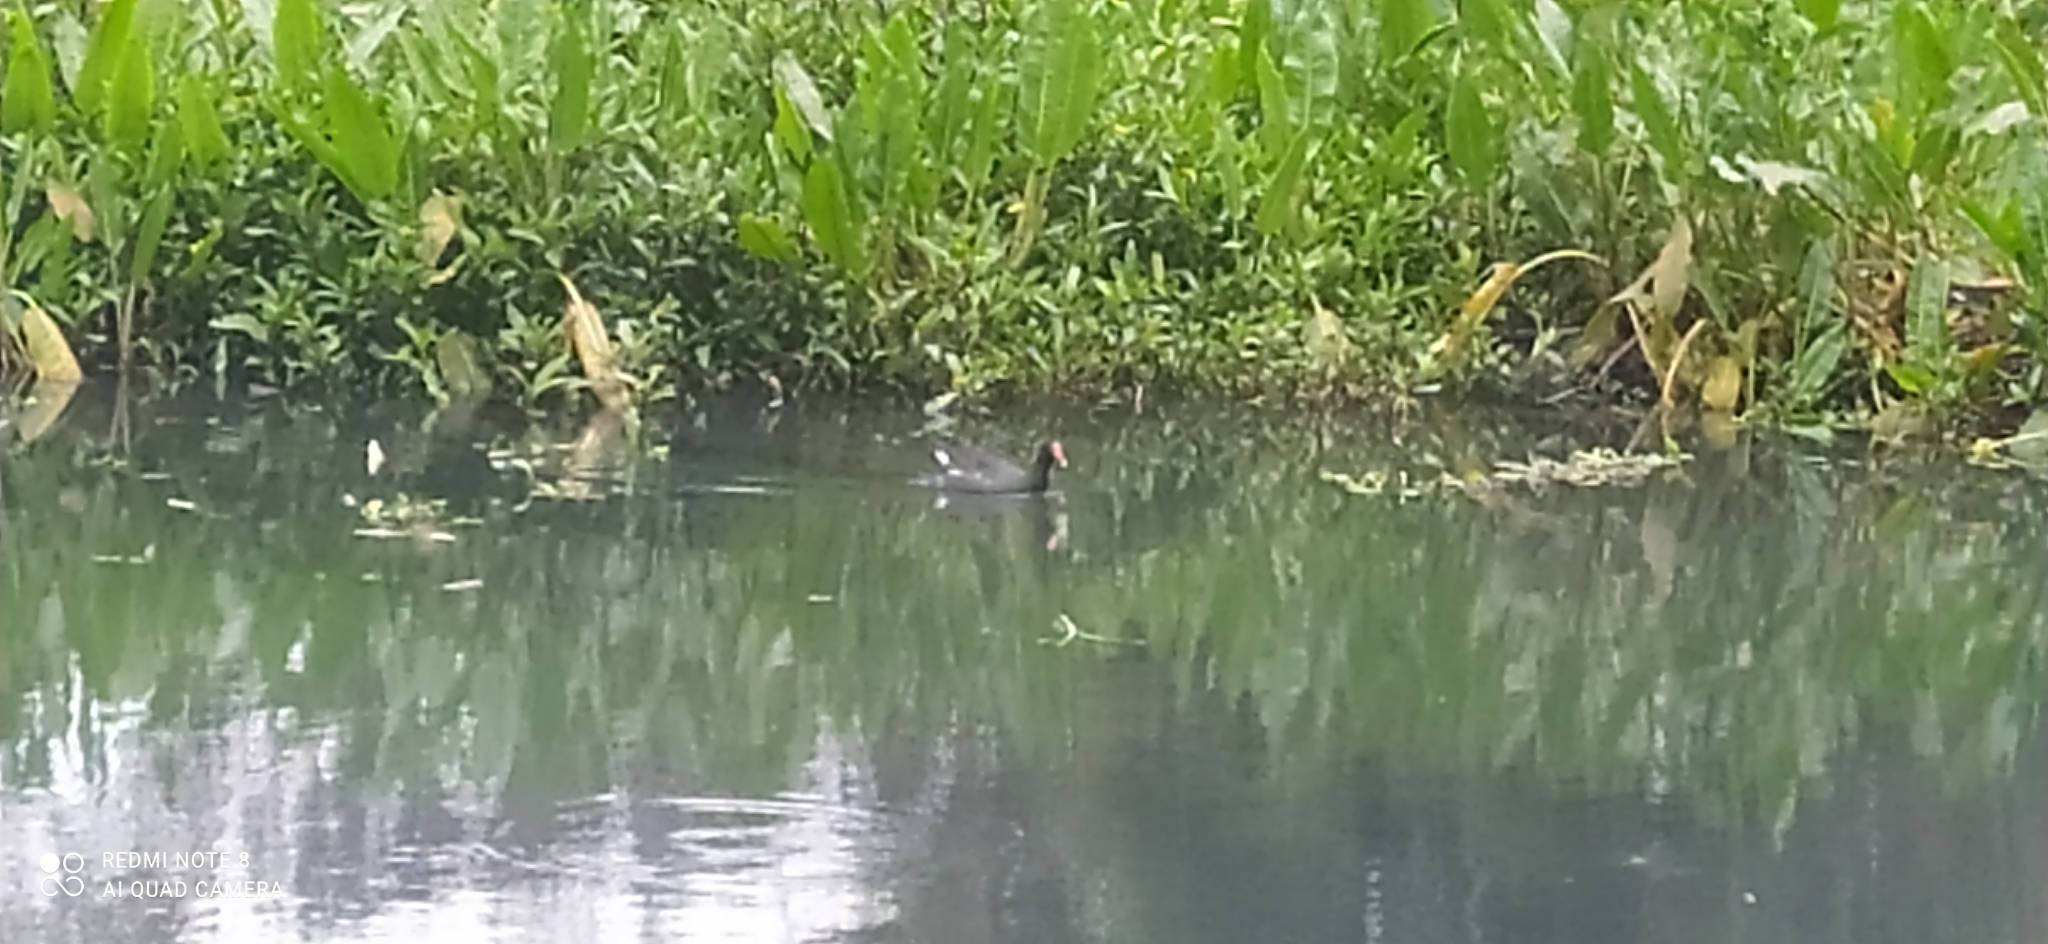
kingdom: Animalia
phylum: Chordata
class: Aves
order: Gruiformes
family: Rallidae
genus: Gallinula
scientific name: Gallinula chloropus
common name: Common moorhen
